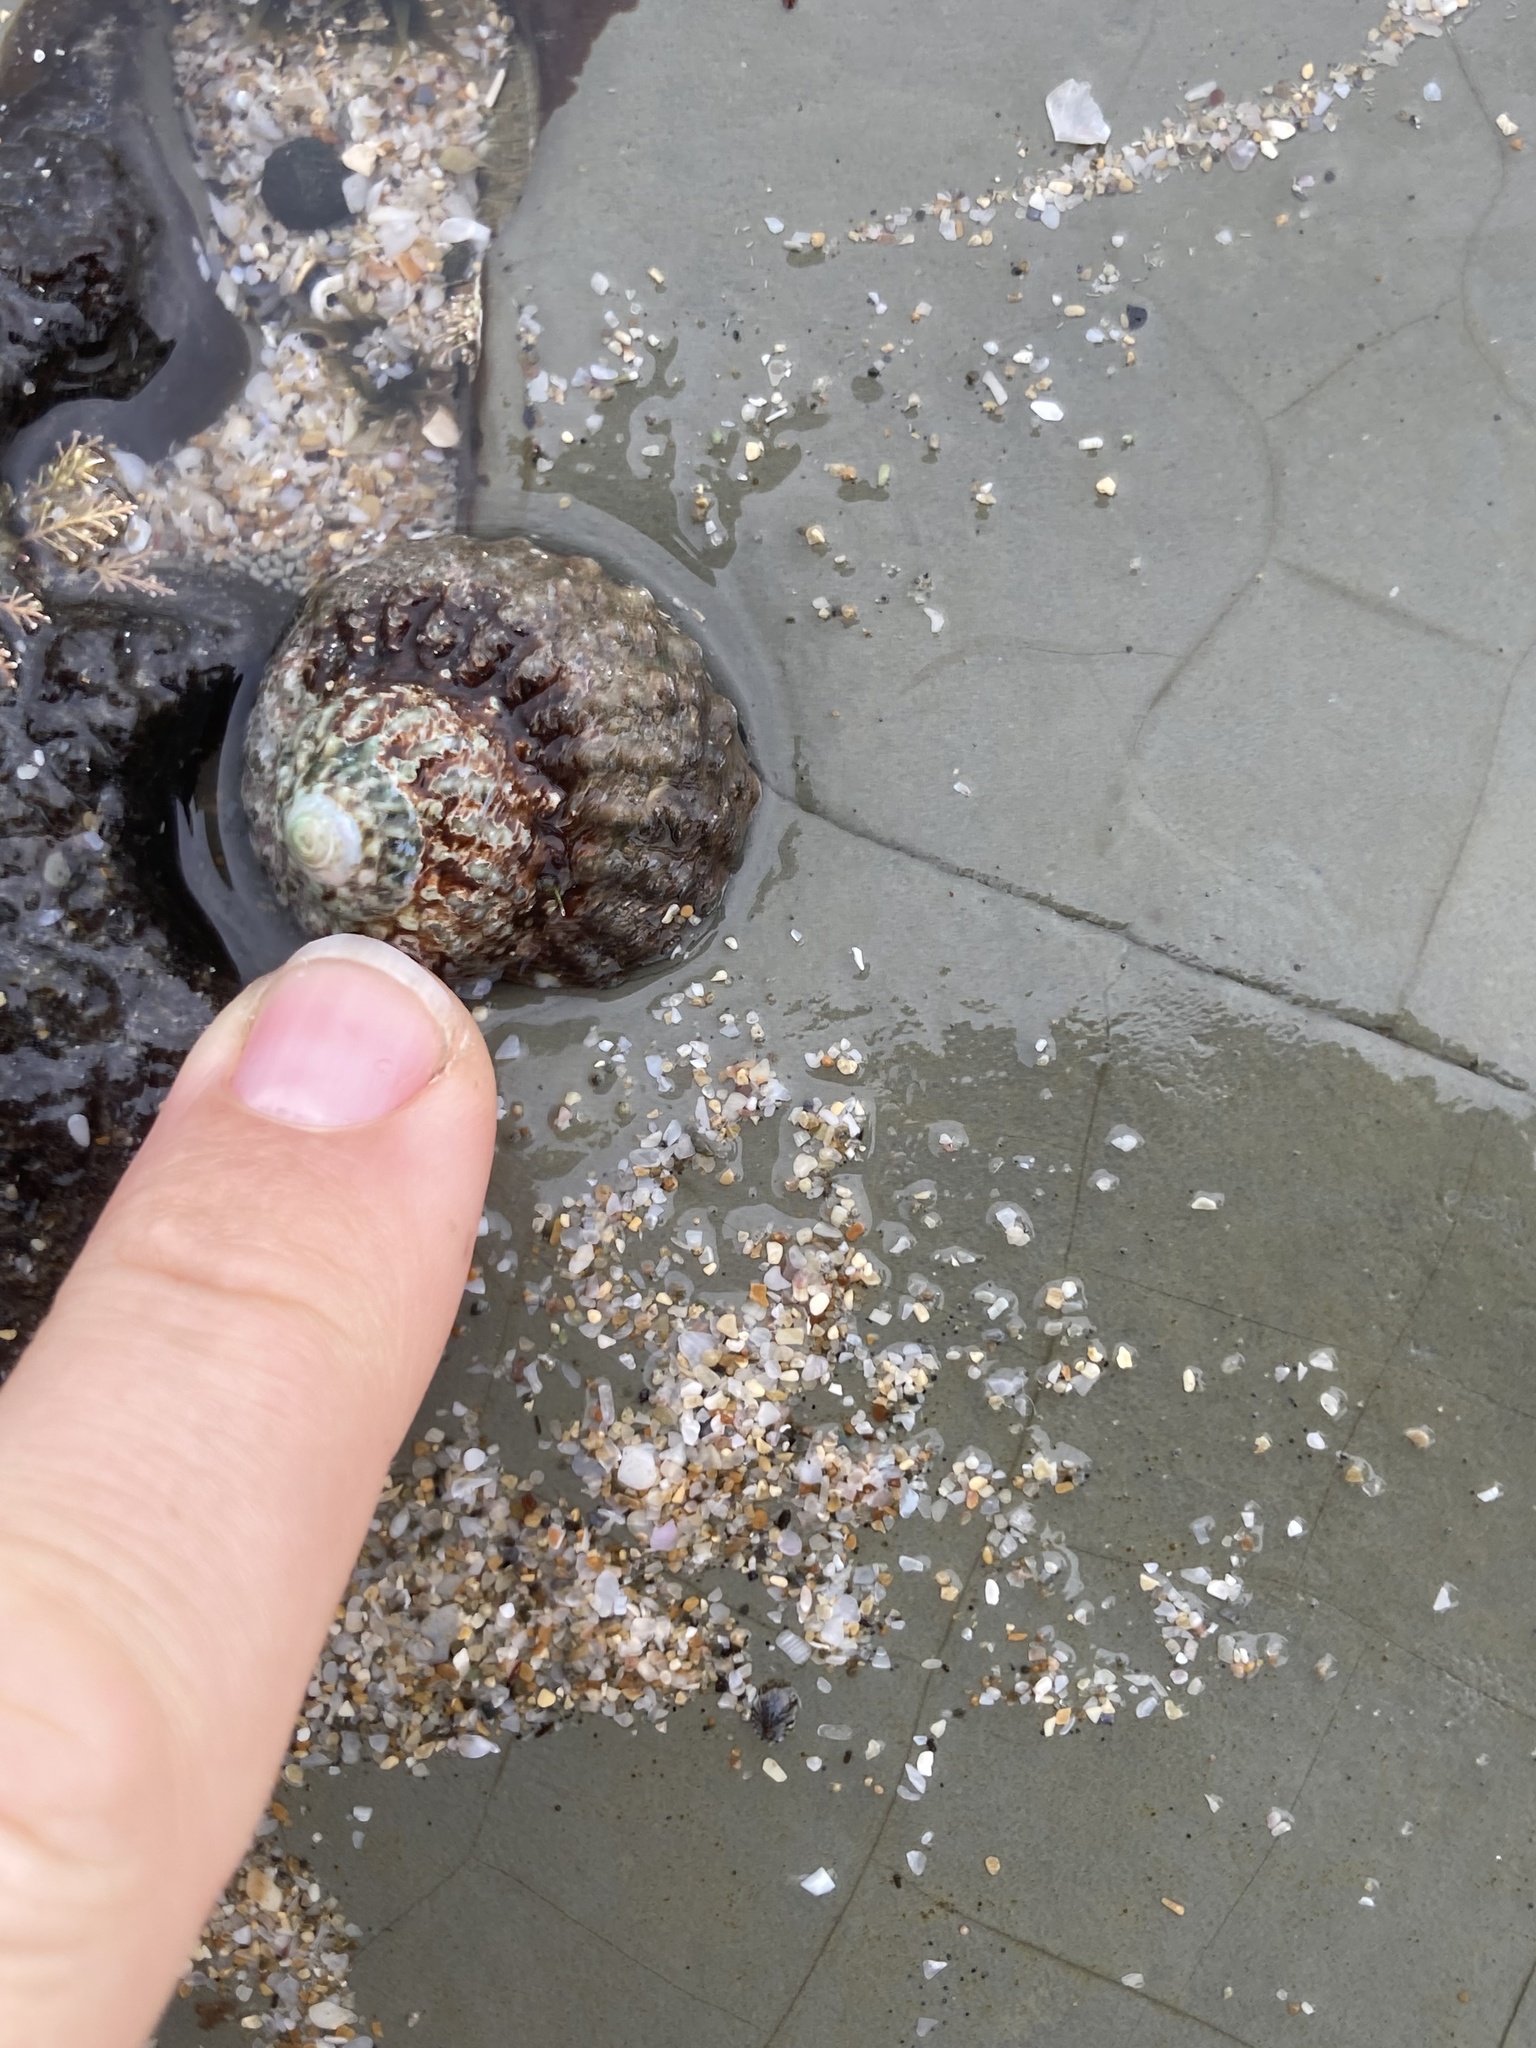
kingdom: Animalia
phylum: Mollusca
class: Gastropoda
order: Trochida
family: Turbinidae
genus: Cookia
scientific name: Cookia sulcata
